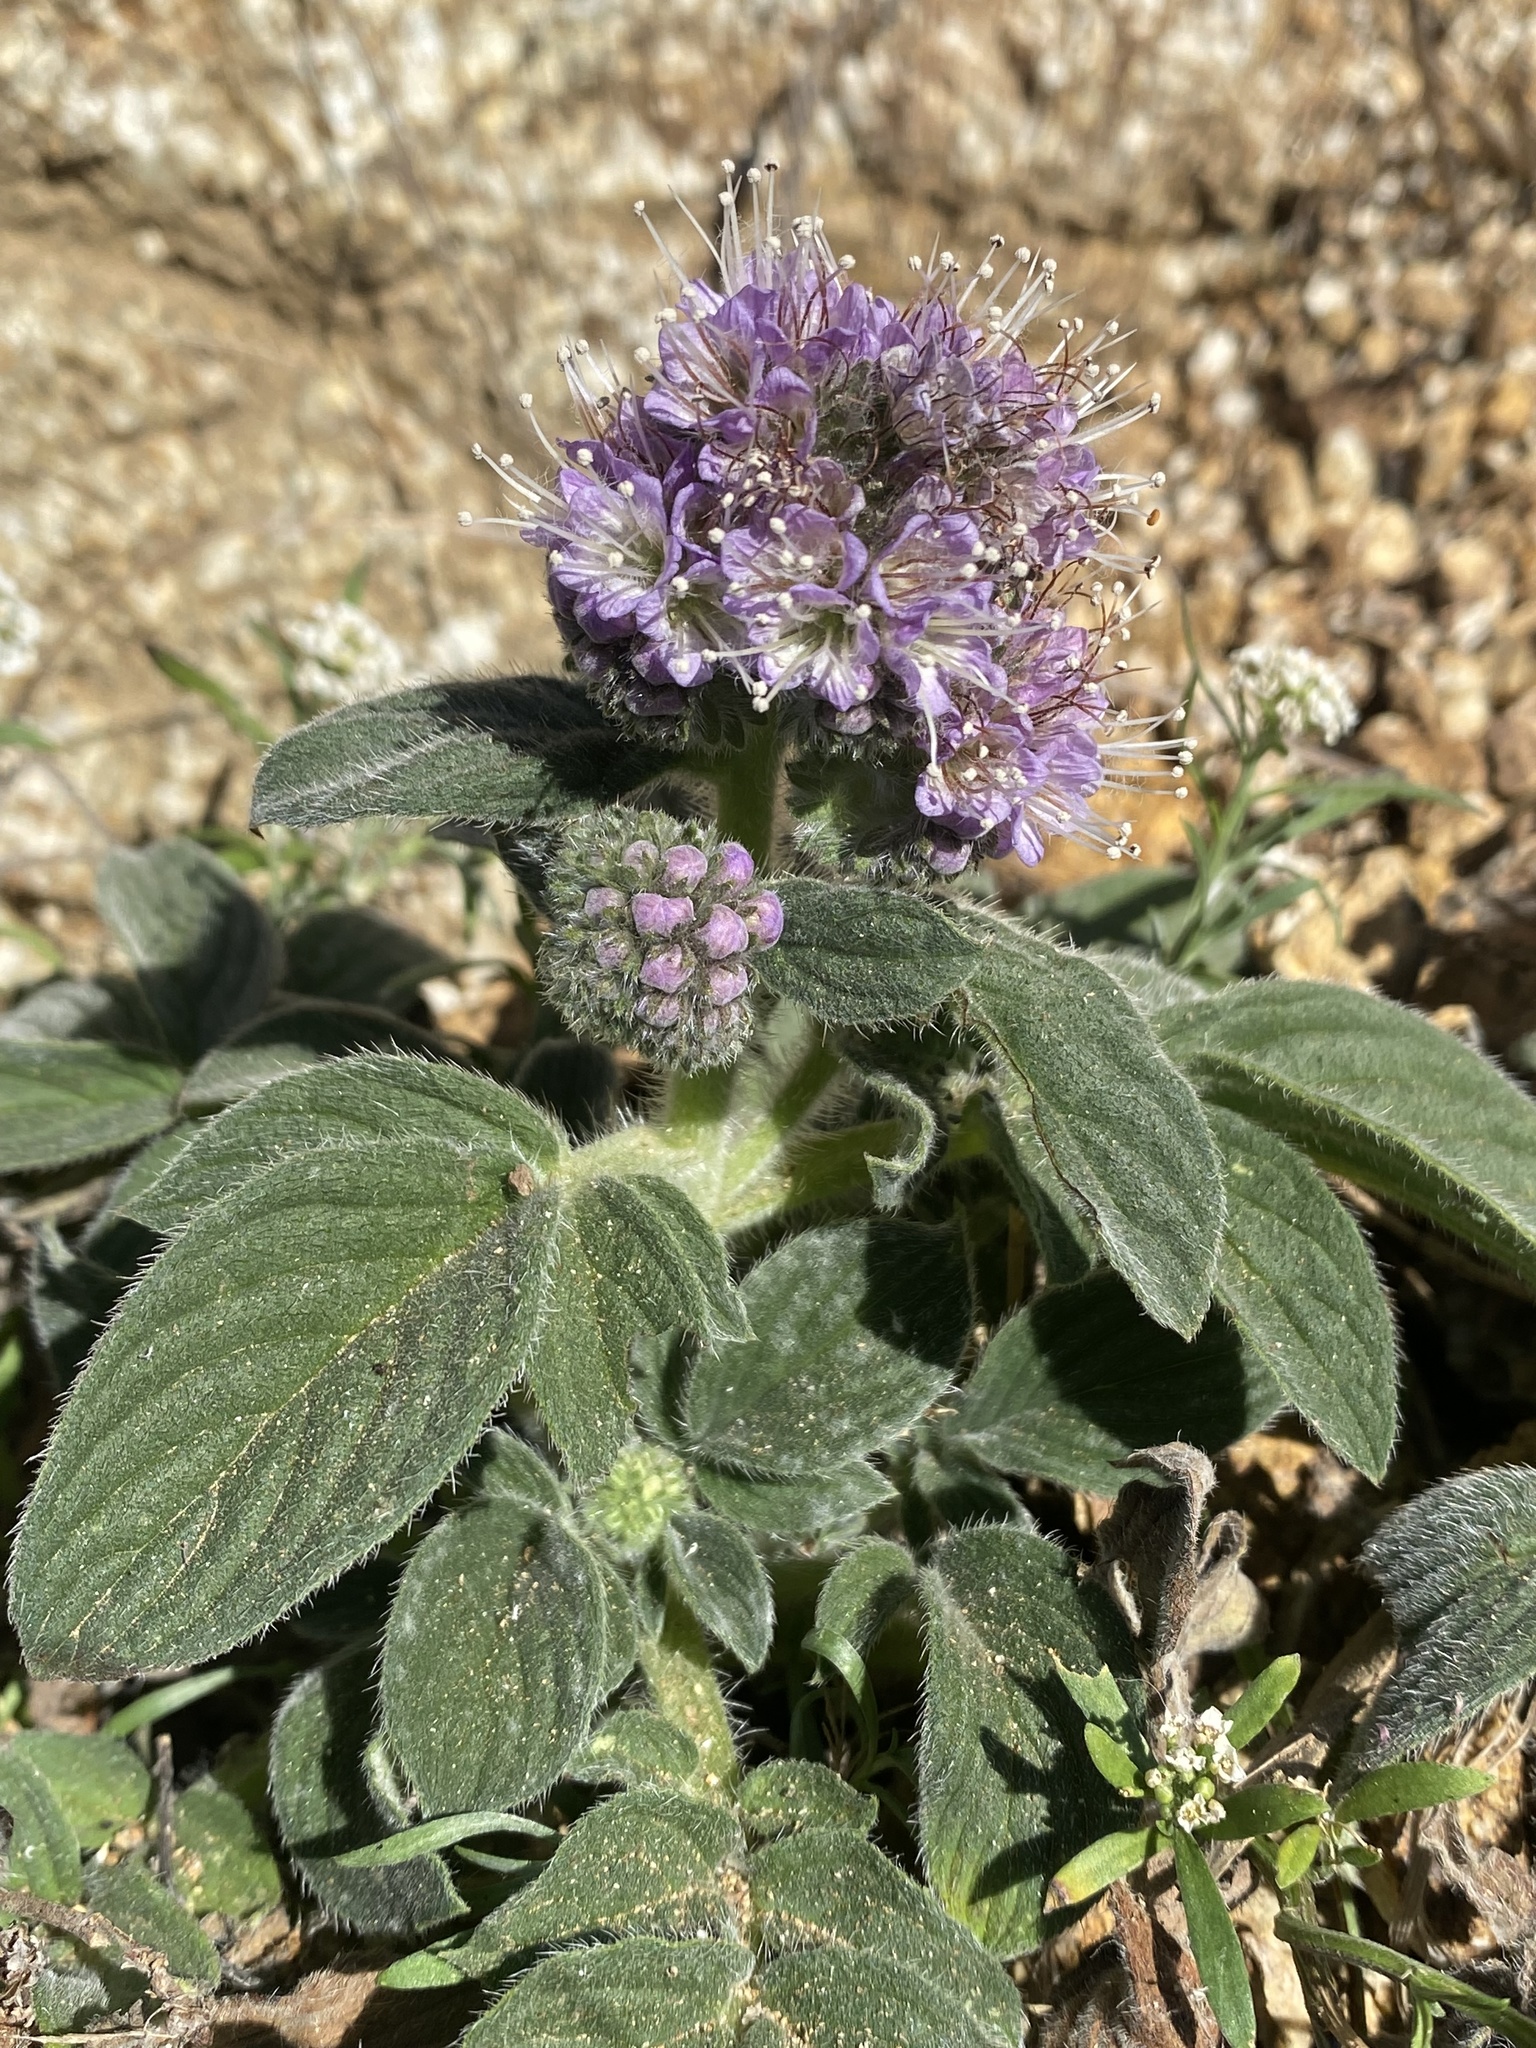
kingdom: Plantae
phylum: Tracheophyta
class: Magnoliopsida
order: Boraginales
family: Hydrophyllaceae
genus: Phacelia
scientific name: Phacelia californica
